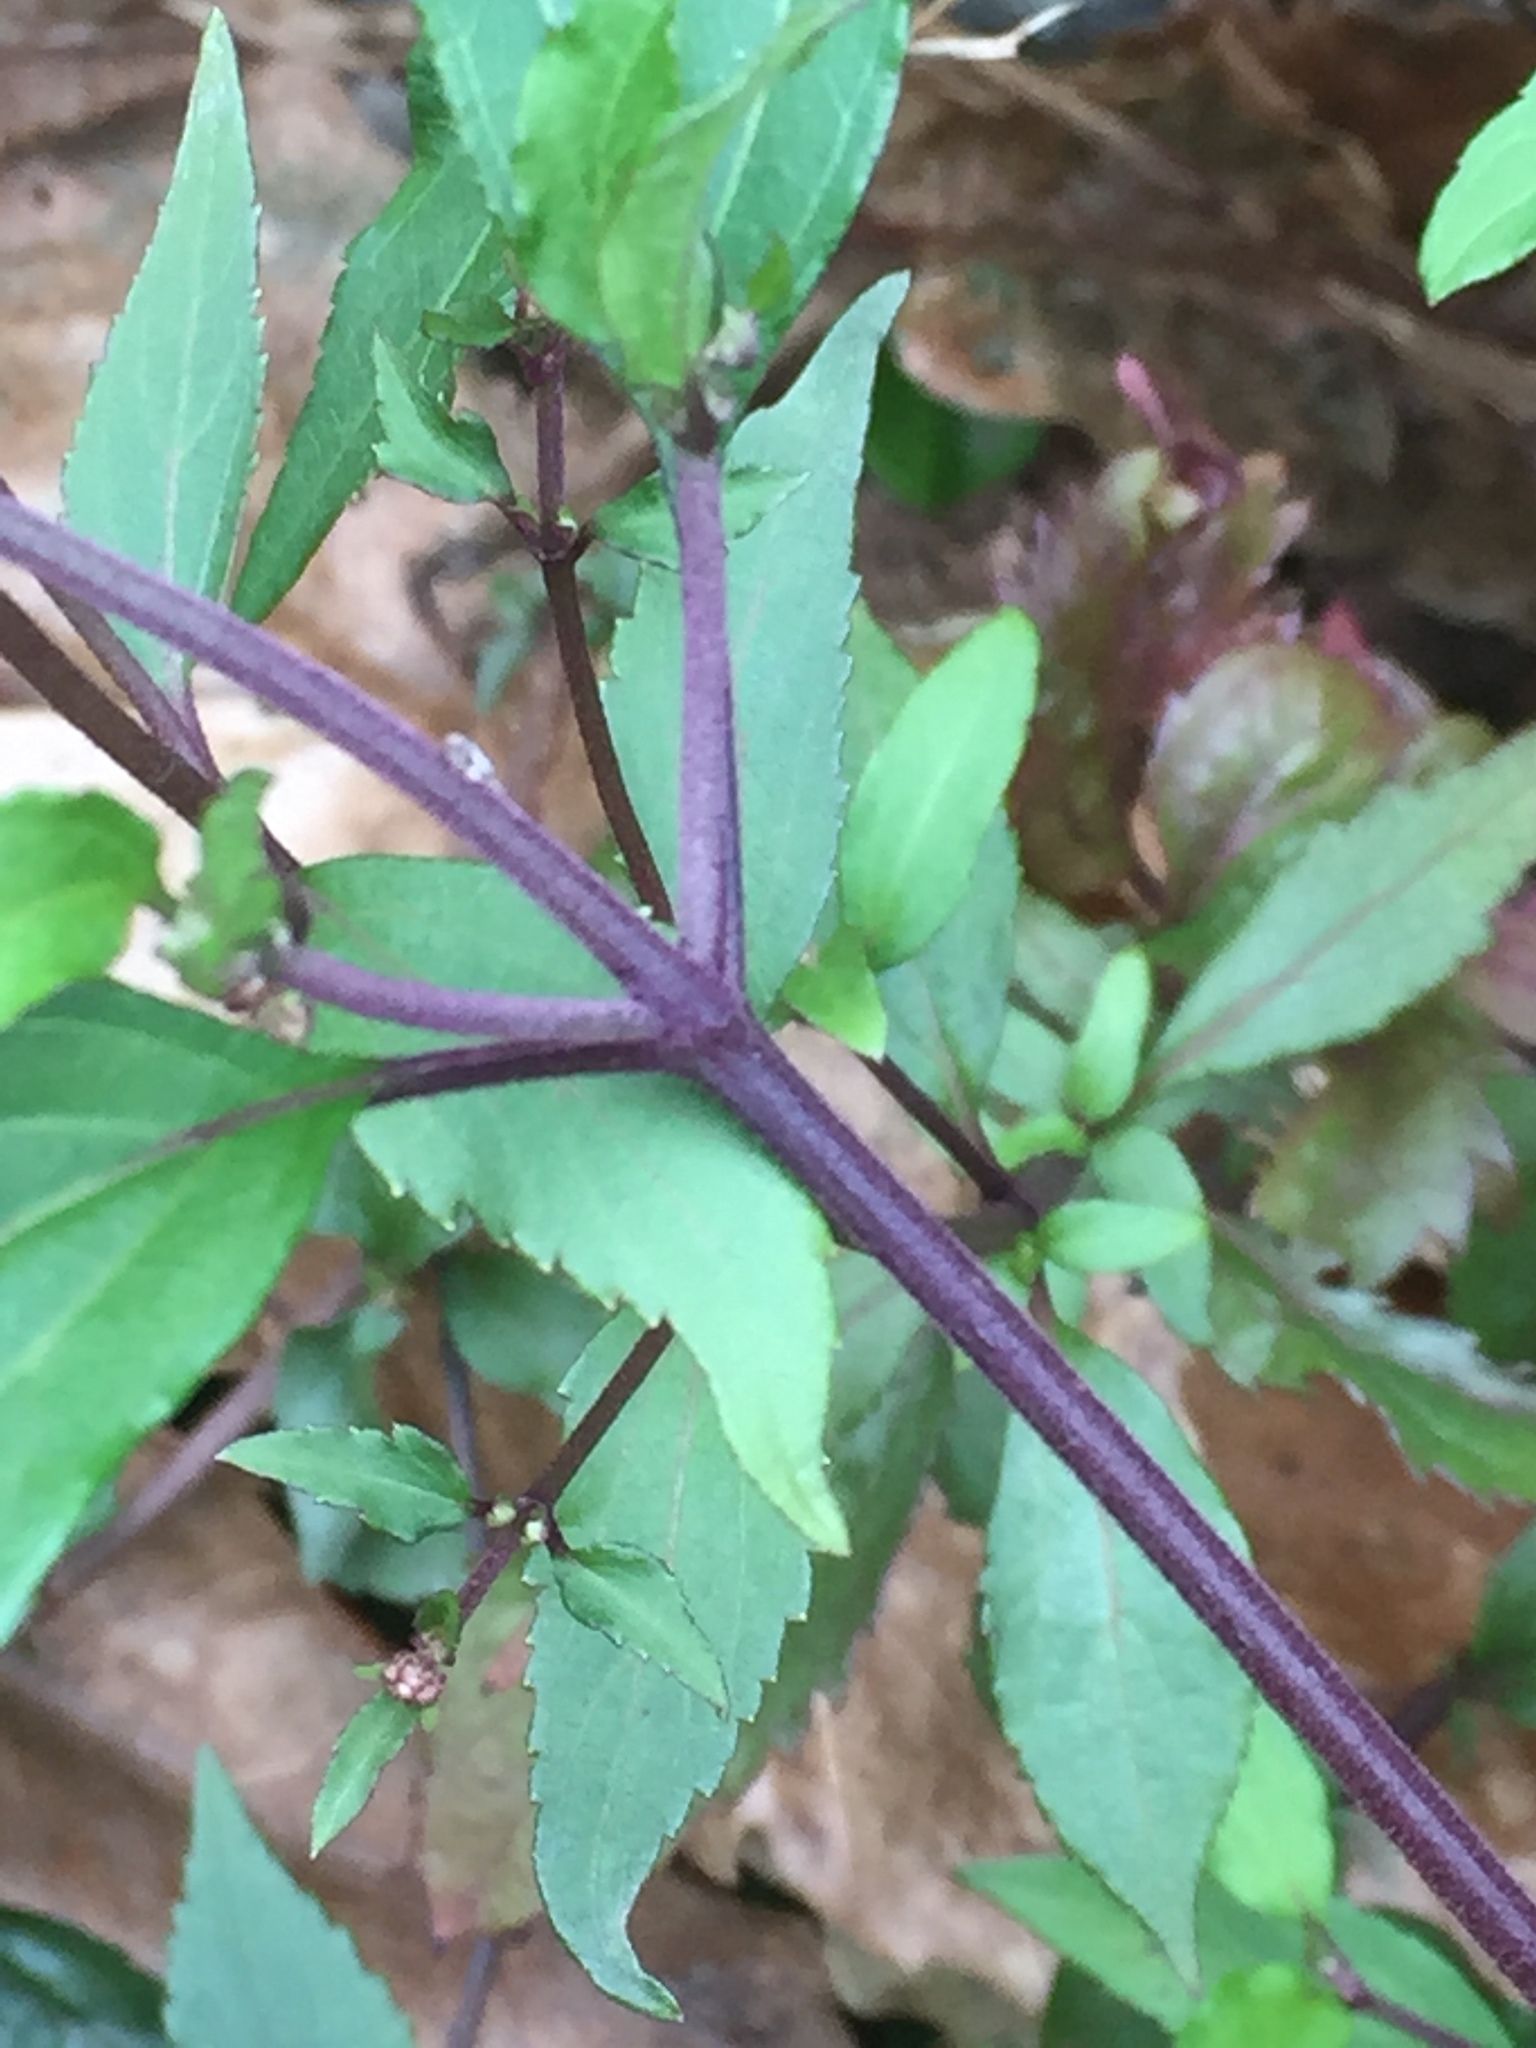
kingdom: Plantae
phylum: Tracheophyta
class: Magnoliopsida
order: Asterales
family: Asteraceae
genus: Ageratina
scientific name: Ageratina riparia
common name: Creeping croftonweed
